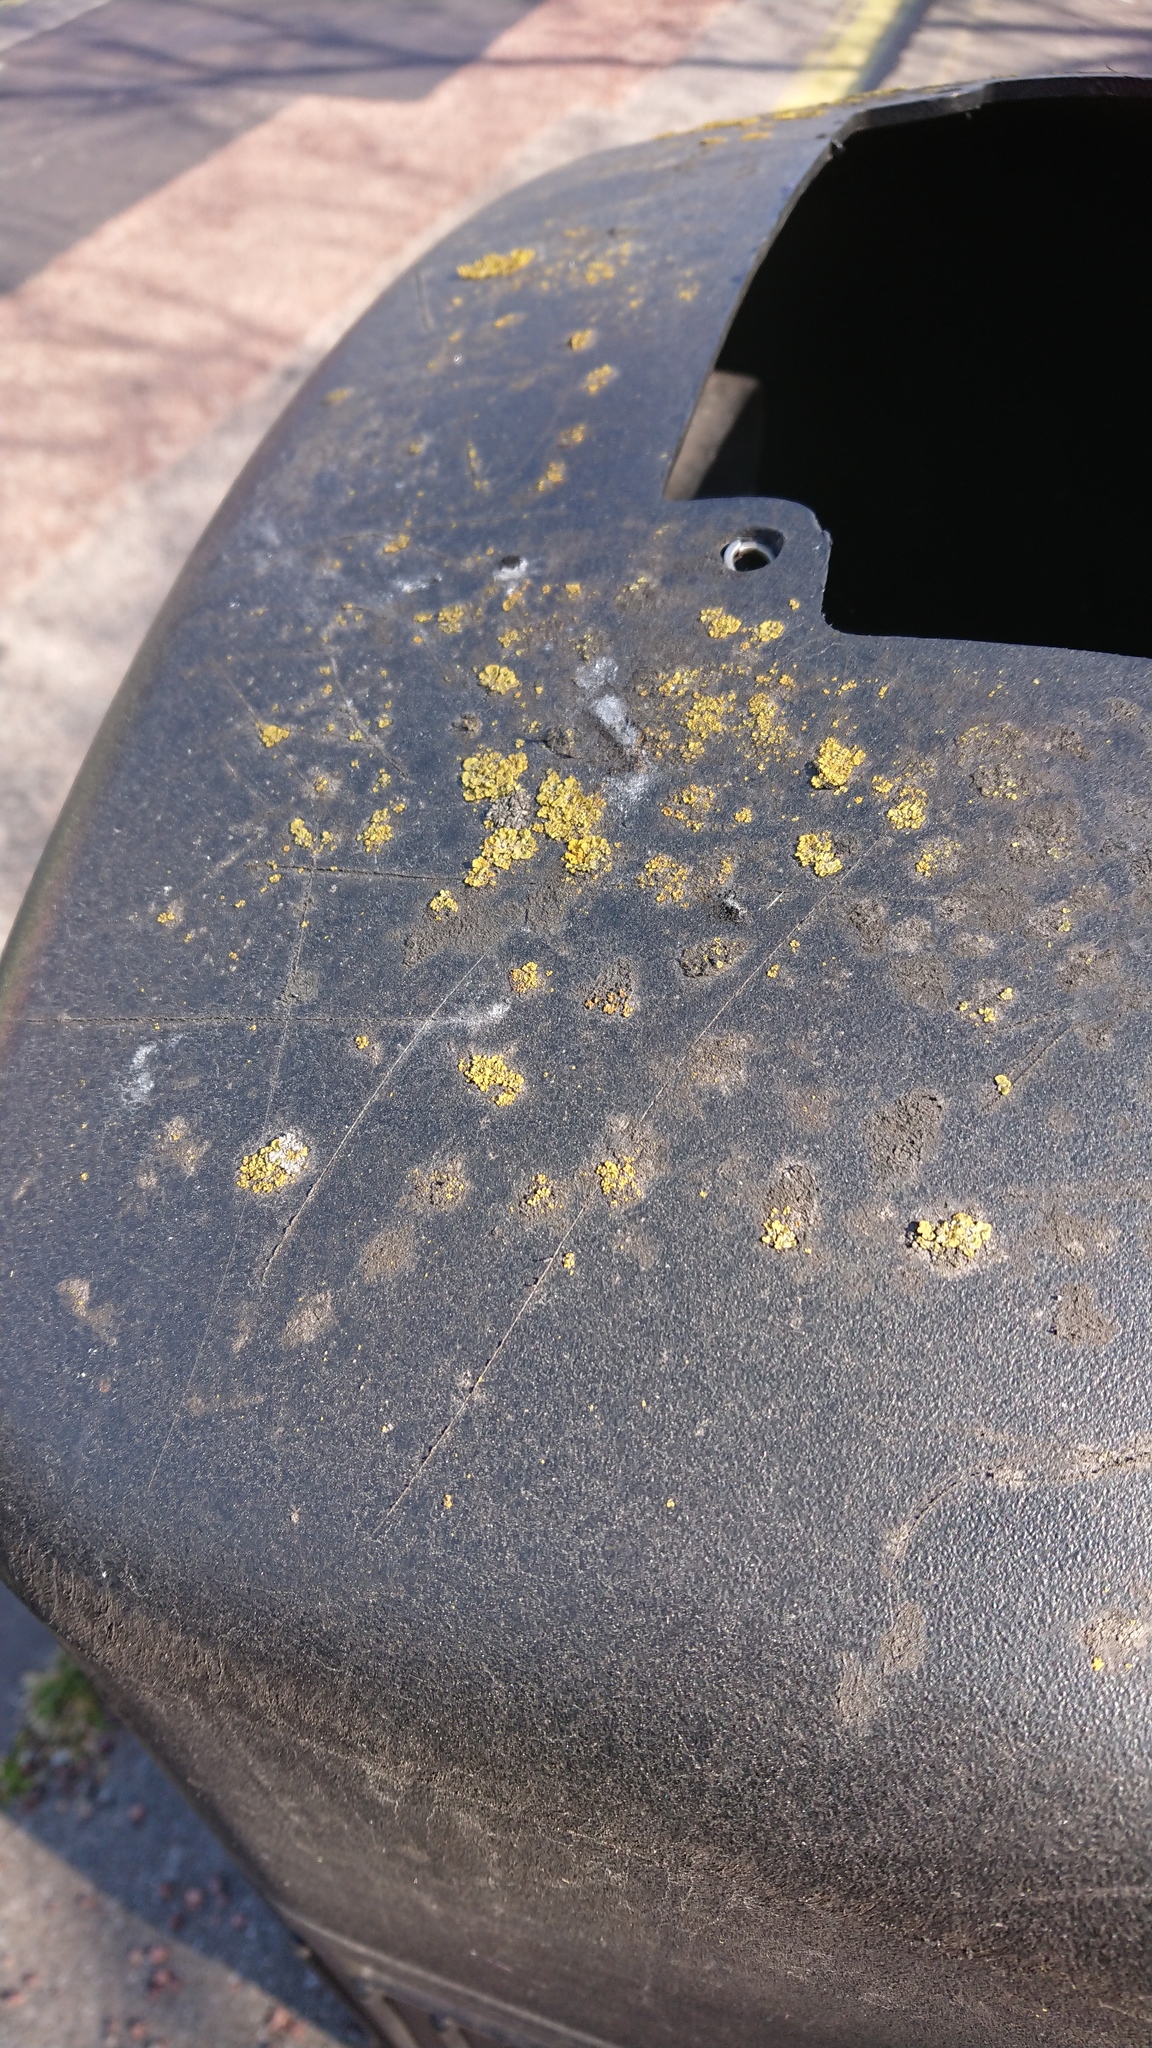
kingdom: Fungi
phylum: Ascomycota
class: Lecanoromycetes
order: Teloschistales
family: Teloschistaceae
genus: Xanthoria
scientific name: Xanthoria parietina
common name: Common orange lichen
